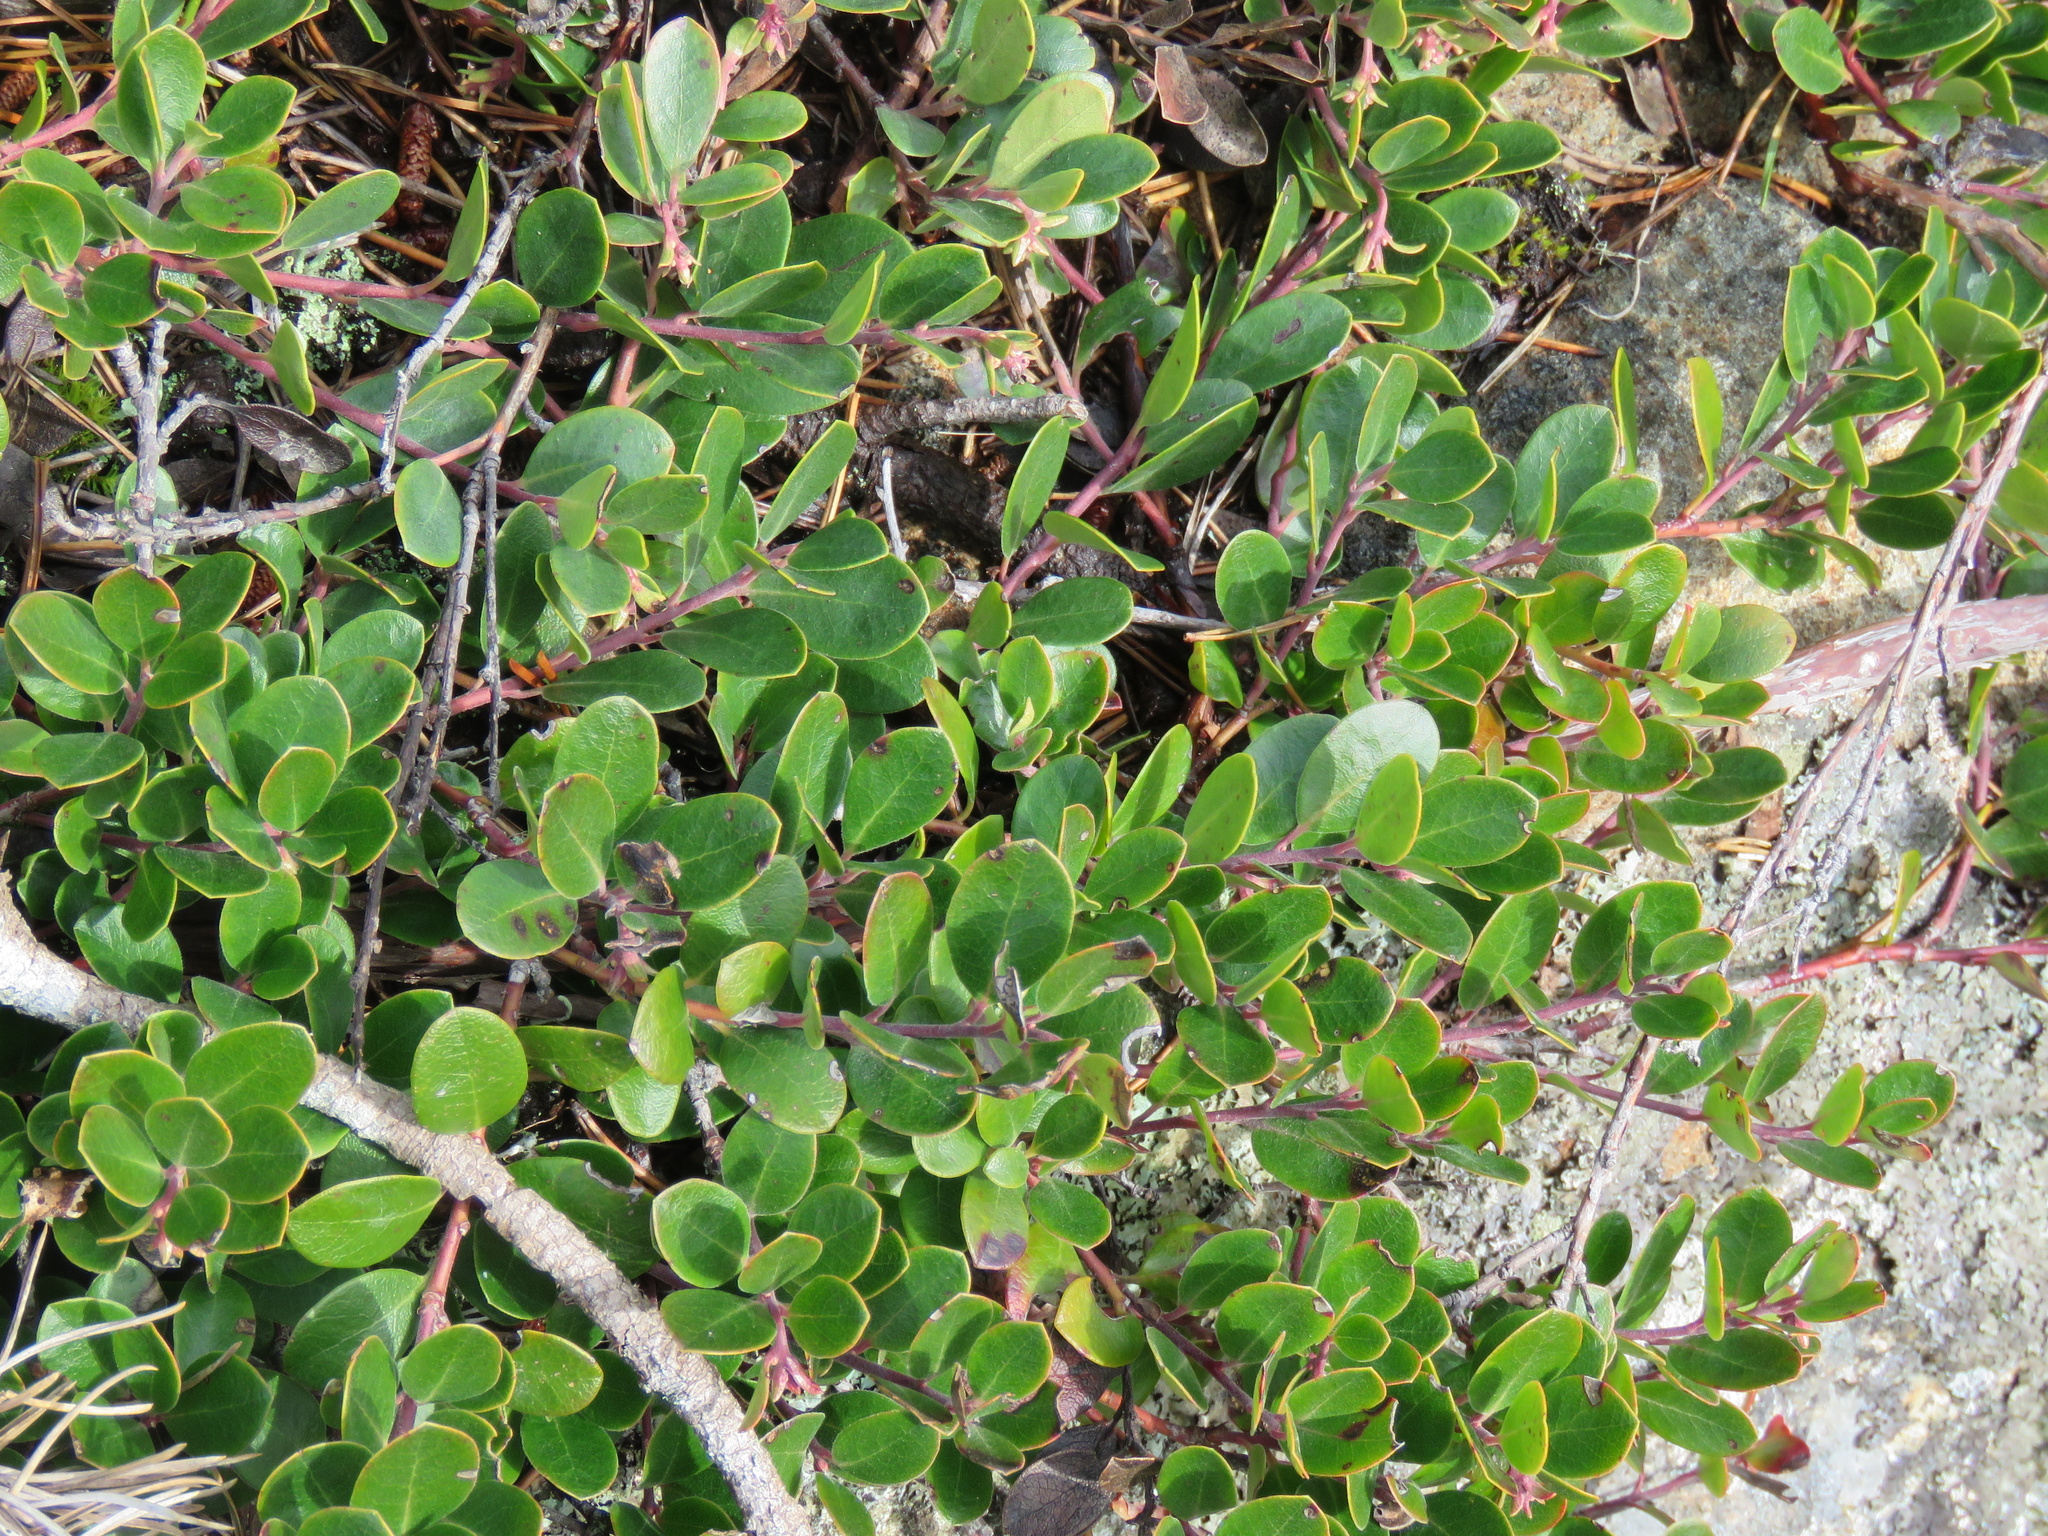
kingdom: Plantae
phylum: Tracheophyta
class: Magnoliopsida
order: Ericales
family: Ericaceae
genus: Arctostaphylos
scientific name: Arctostaphylos uva-ursi
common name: Bearberry
